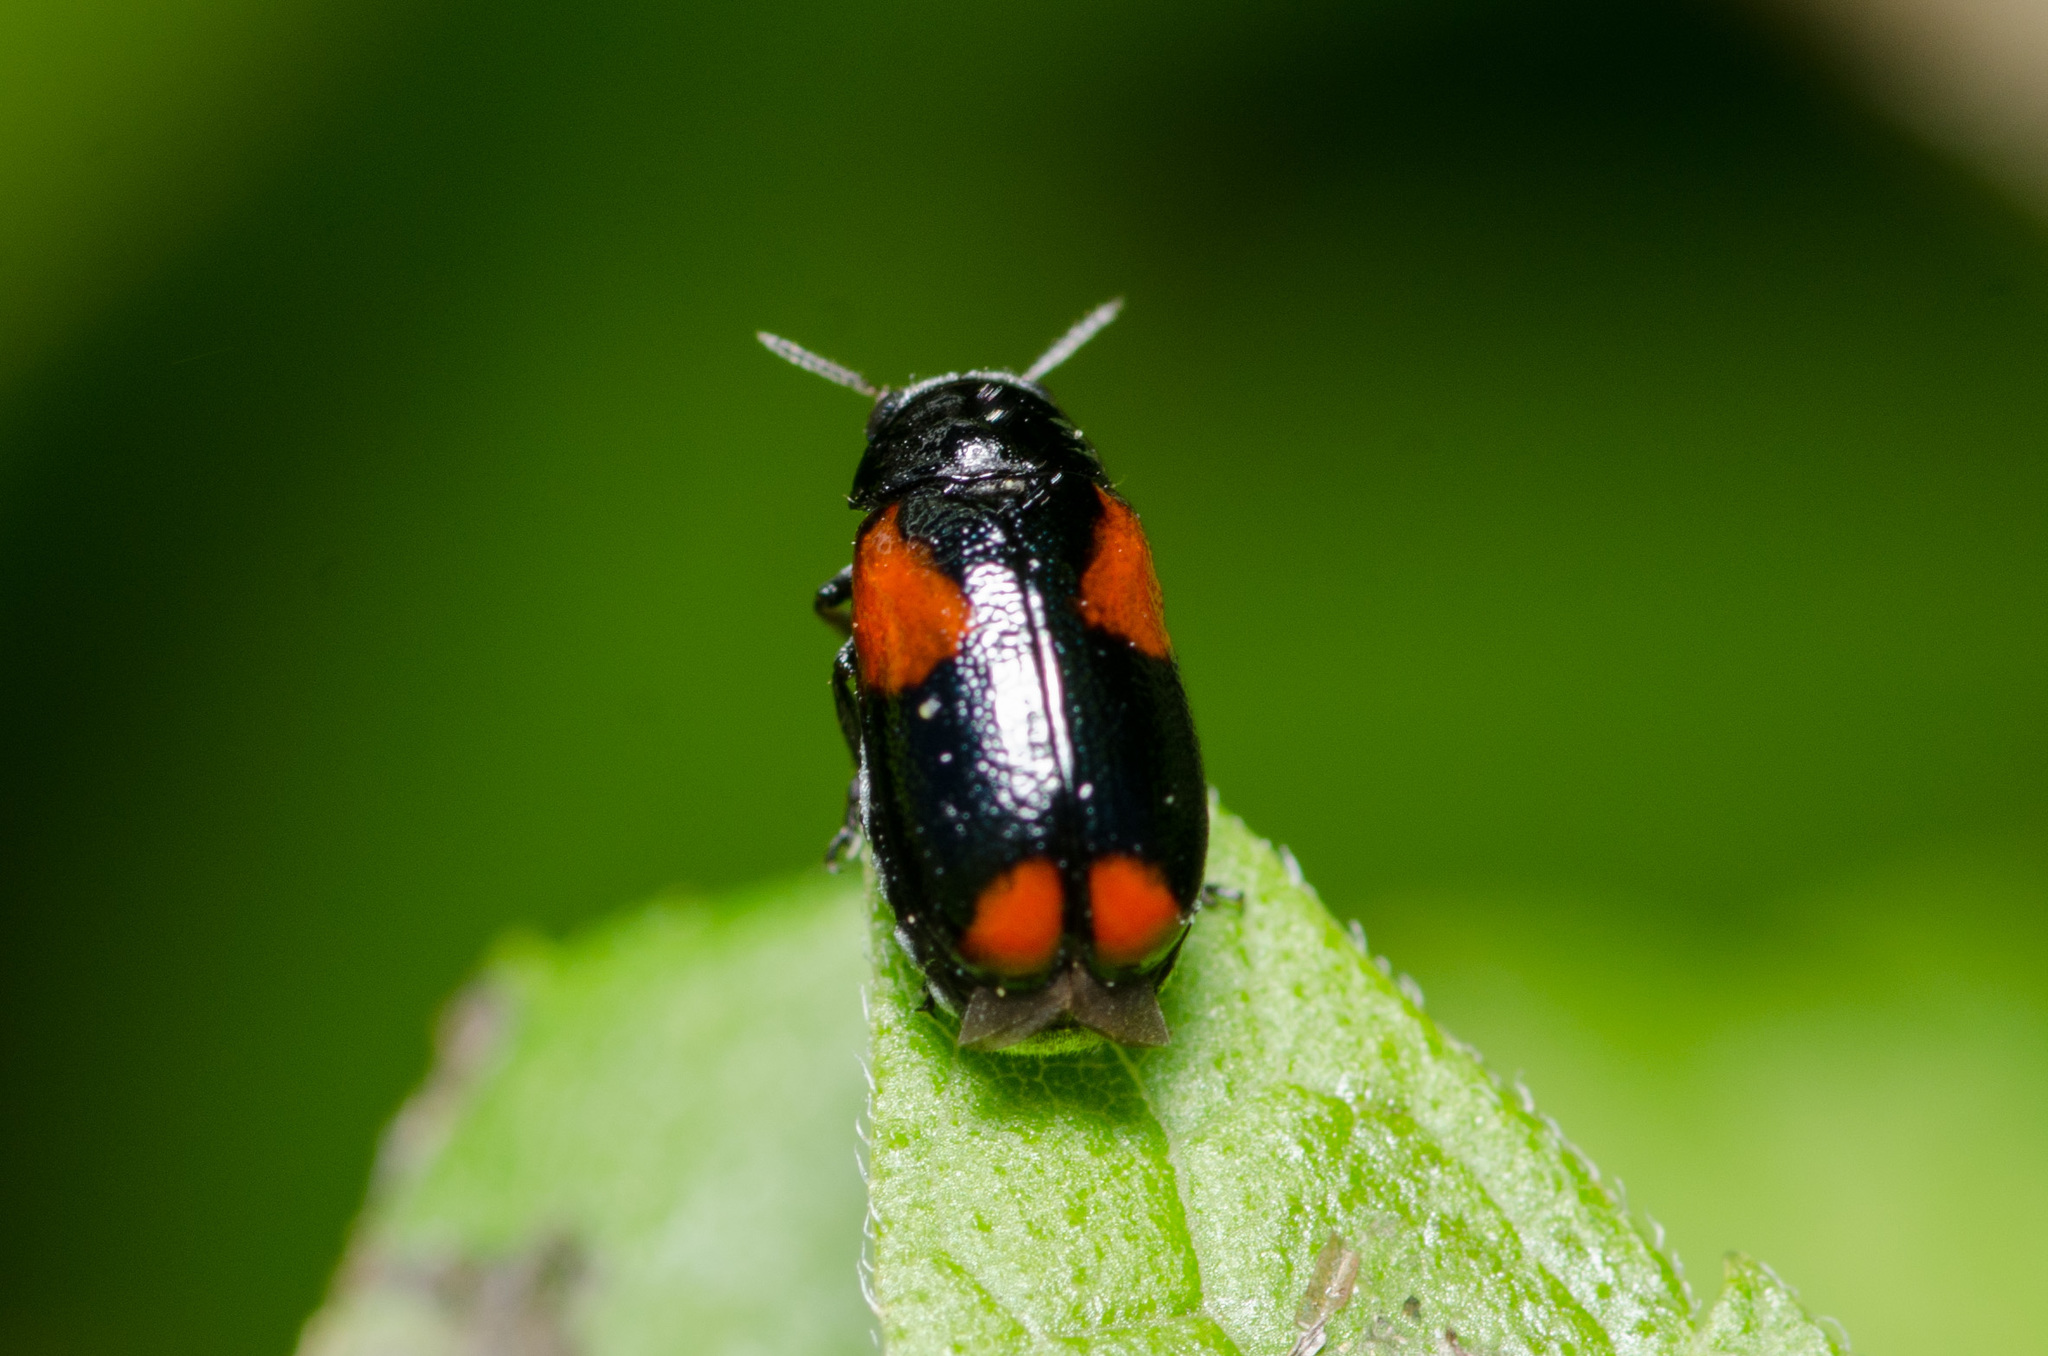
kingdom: Animalia
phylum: Arthropoda
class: Insecta
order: Coleoptera
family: Chrysomelidae
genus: Smaragdina
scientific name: Smaragdina militaris
